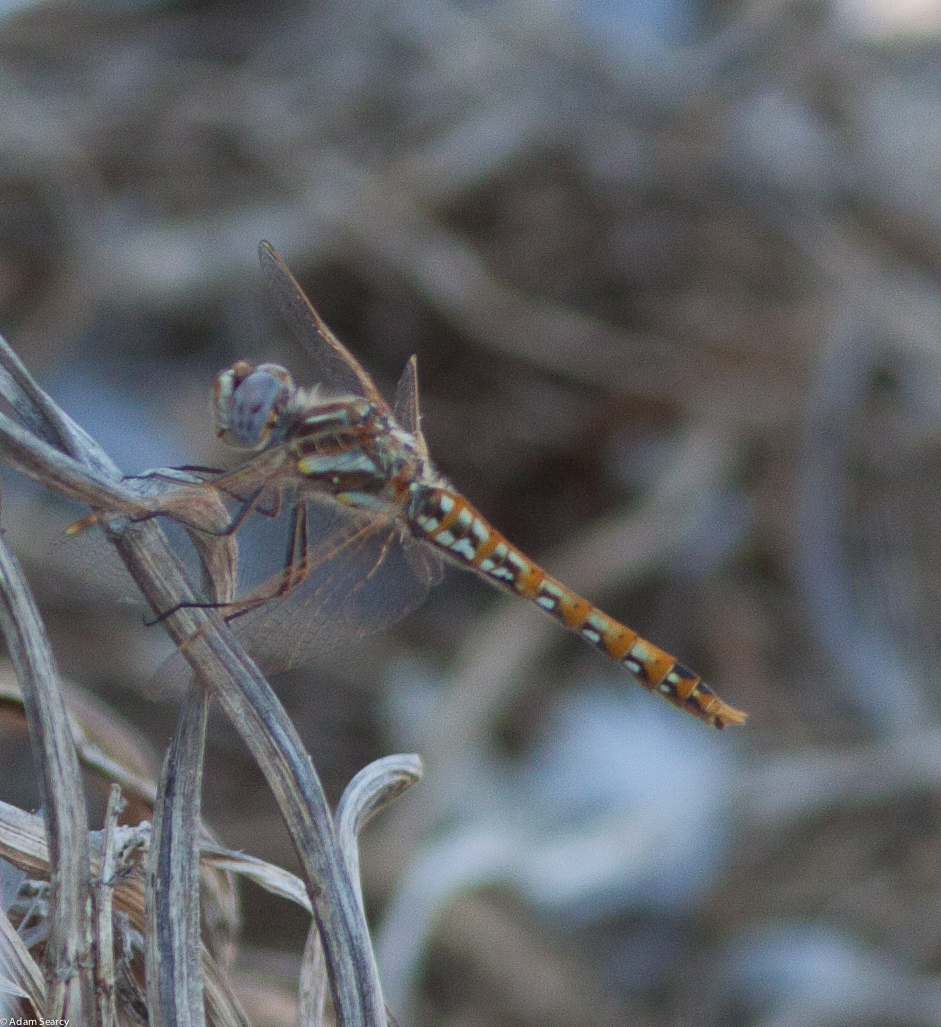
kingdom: Animalia
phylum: Arthropoda
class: Insecta
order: Odonata
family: Libellulidae
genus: Sympetrum
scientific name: Sympetrum corruptum
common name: Variegated meadowhawk
